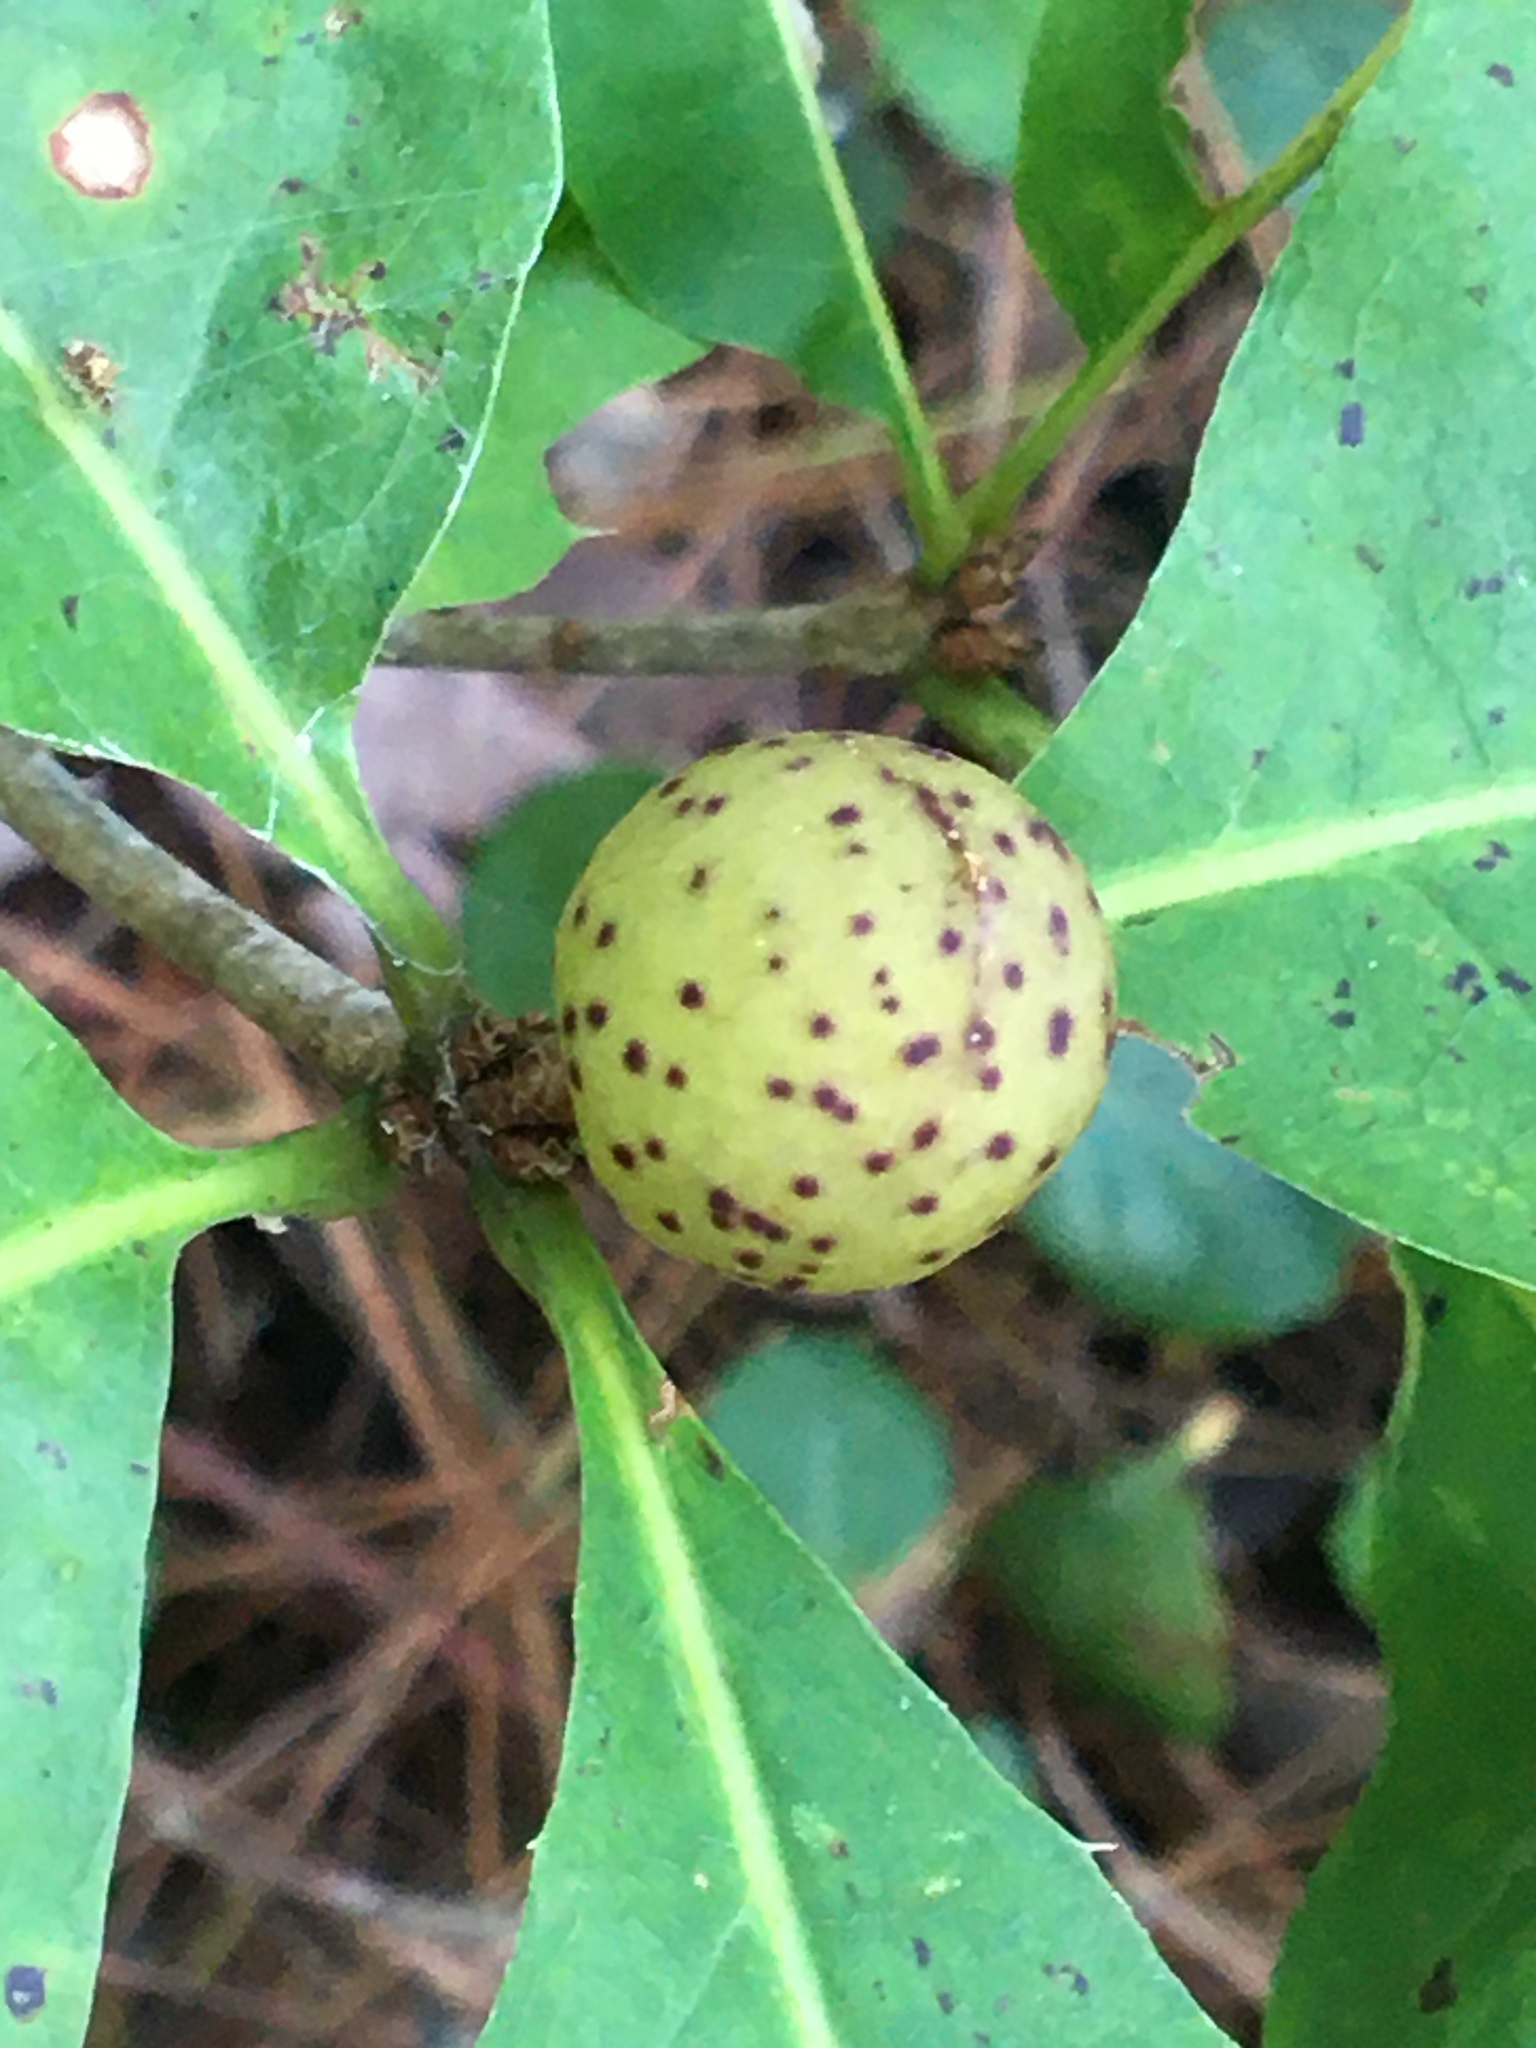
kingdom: Animalia
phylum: Arthropoda
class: Insecta
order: Hymenoptera
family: Cynipidae
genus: Amphibolips
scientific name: Amphibolips
